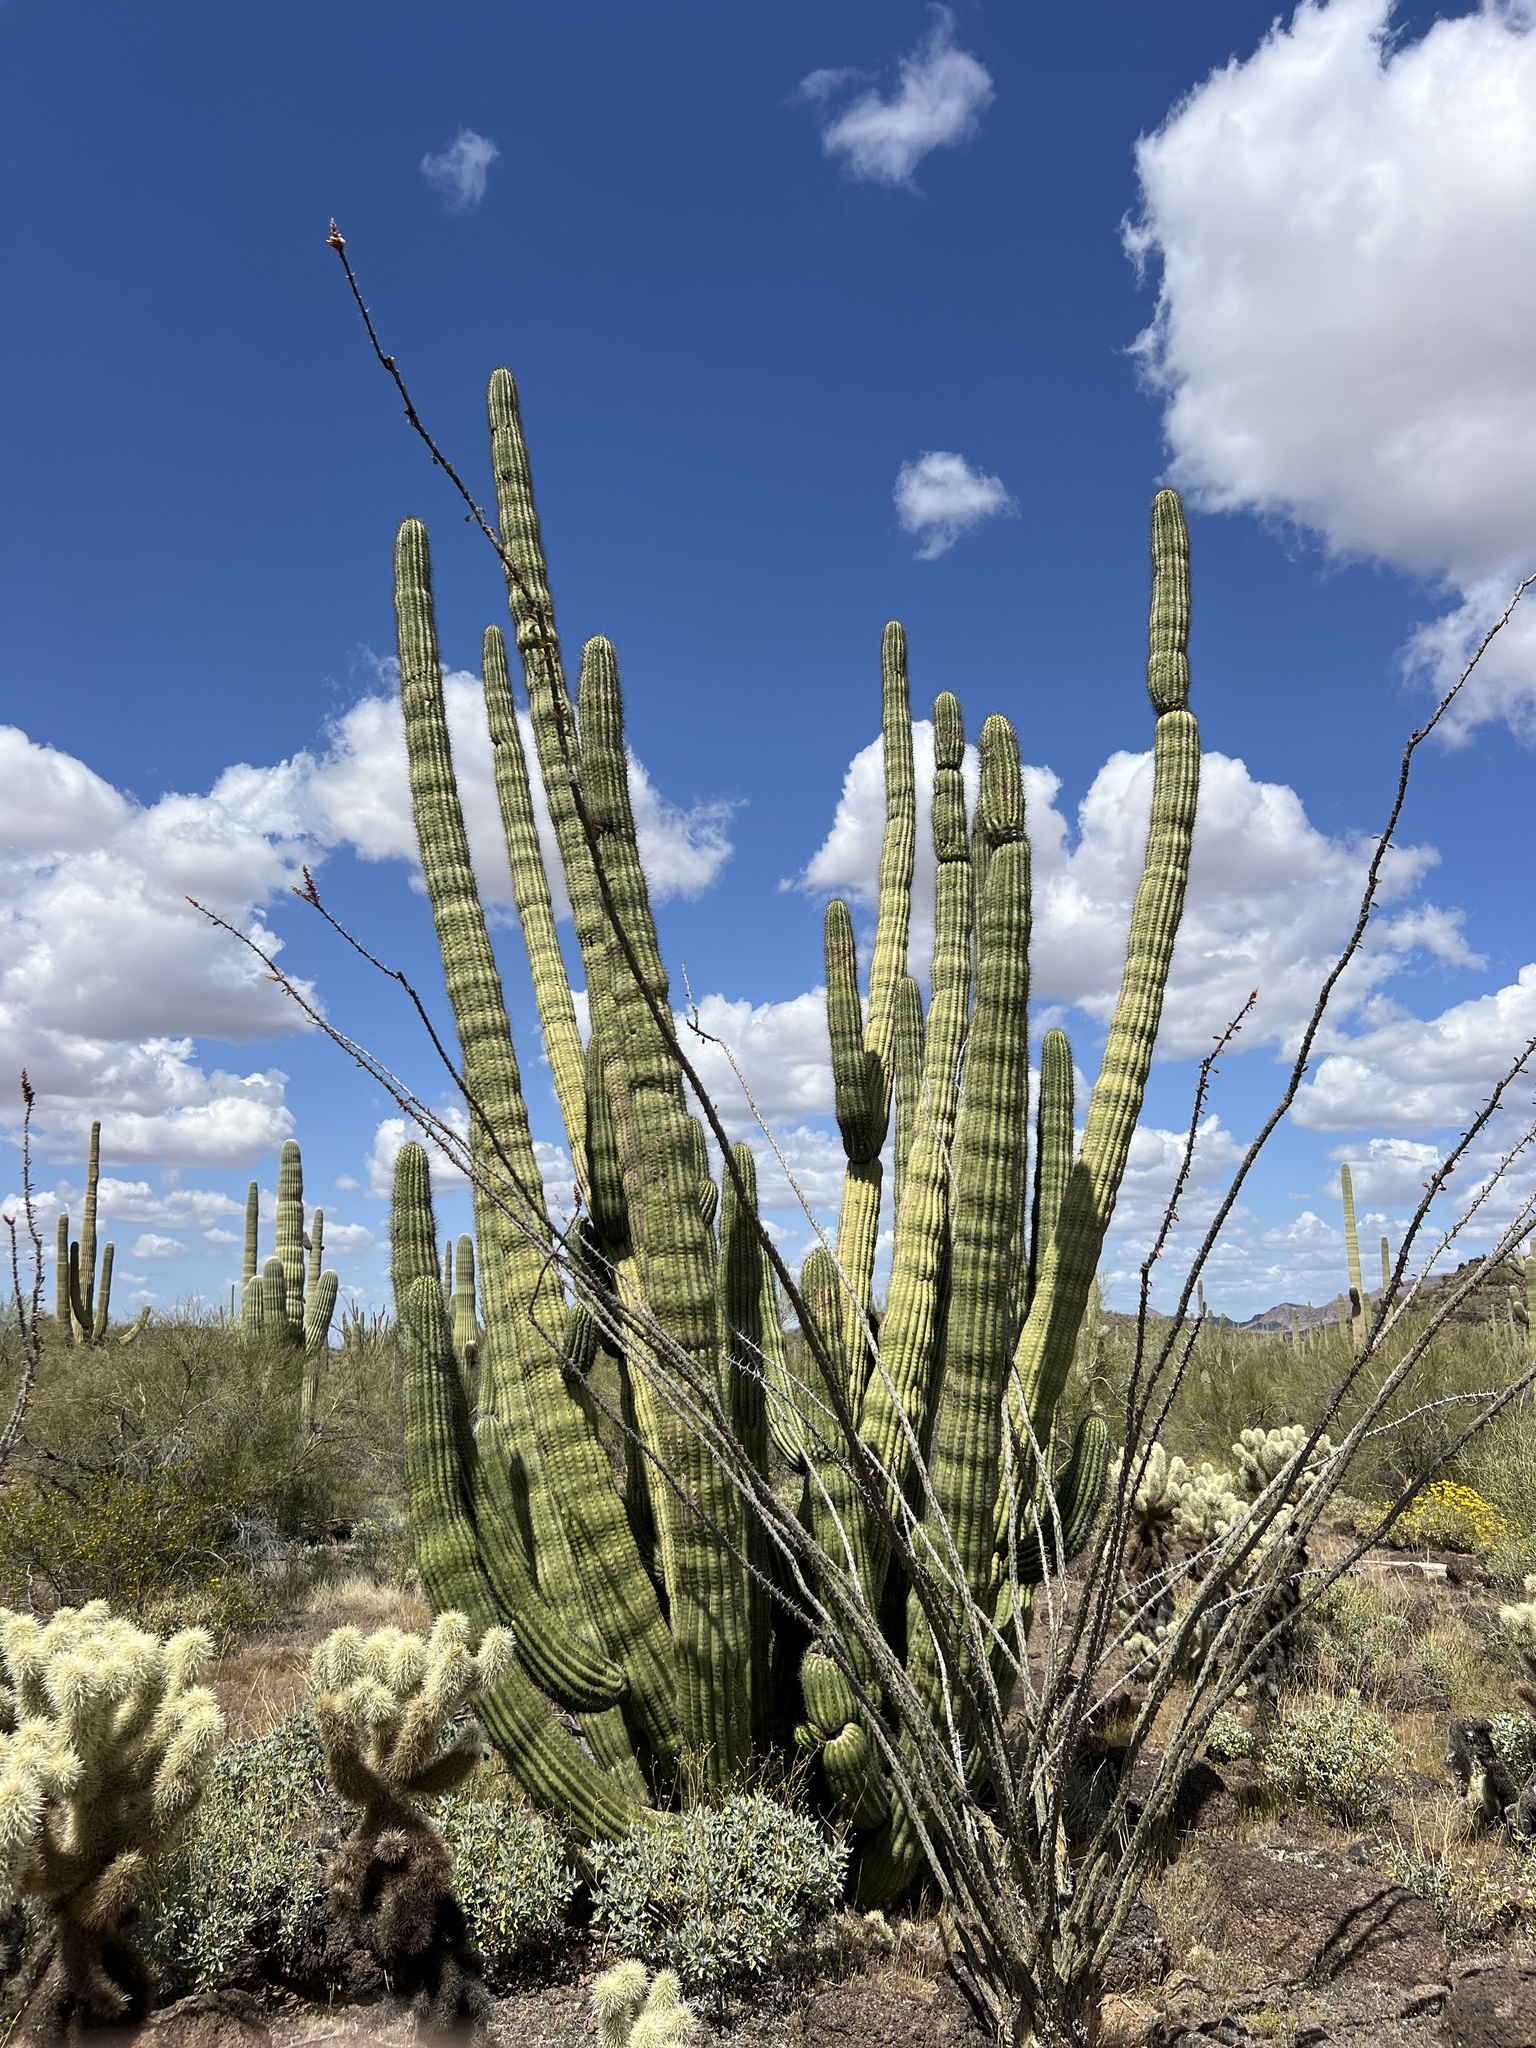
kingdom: Plantae
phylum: Tracheophyta
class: Magnoliopsida
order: Caryophyllales
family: Cactaceae
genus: Stenocereus
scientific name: Stenocereus thurberi
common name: Organ pipe cactus
